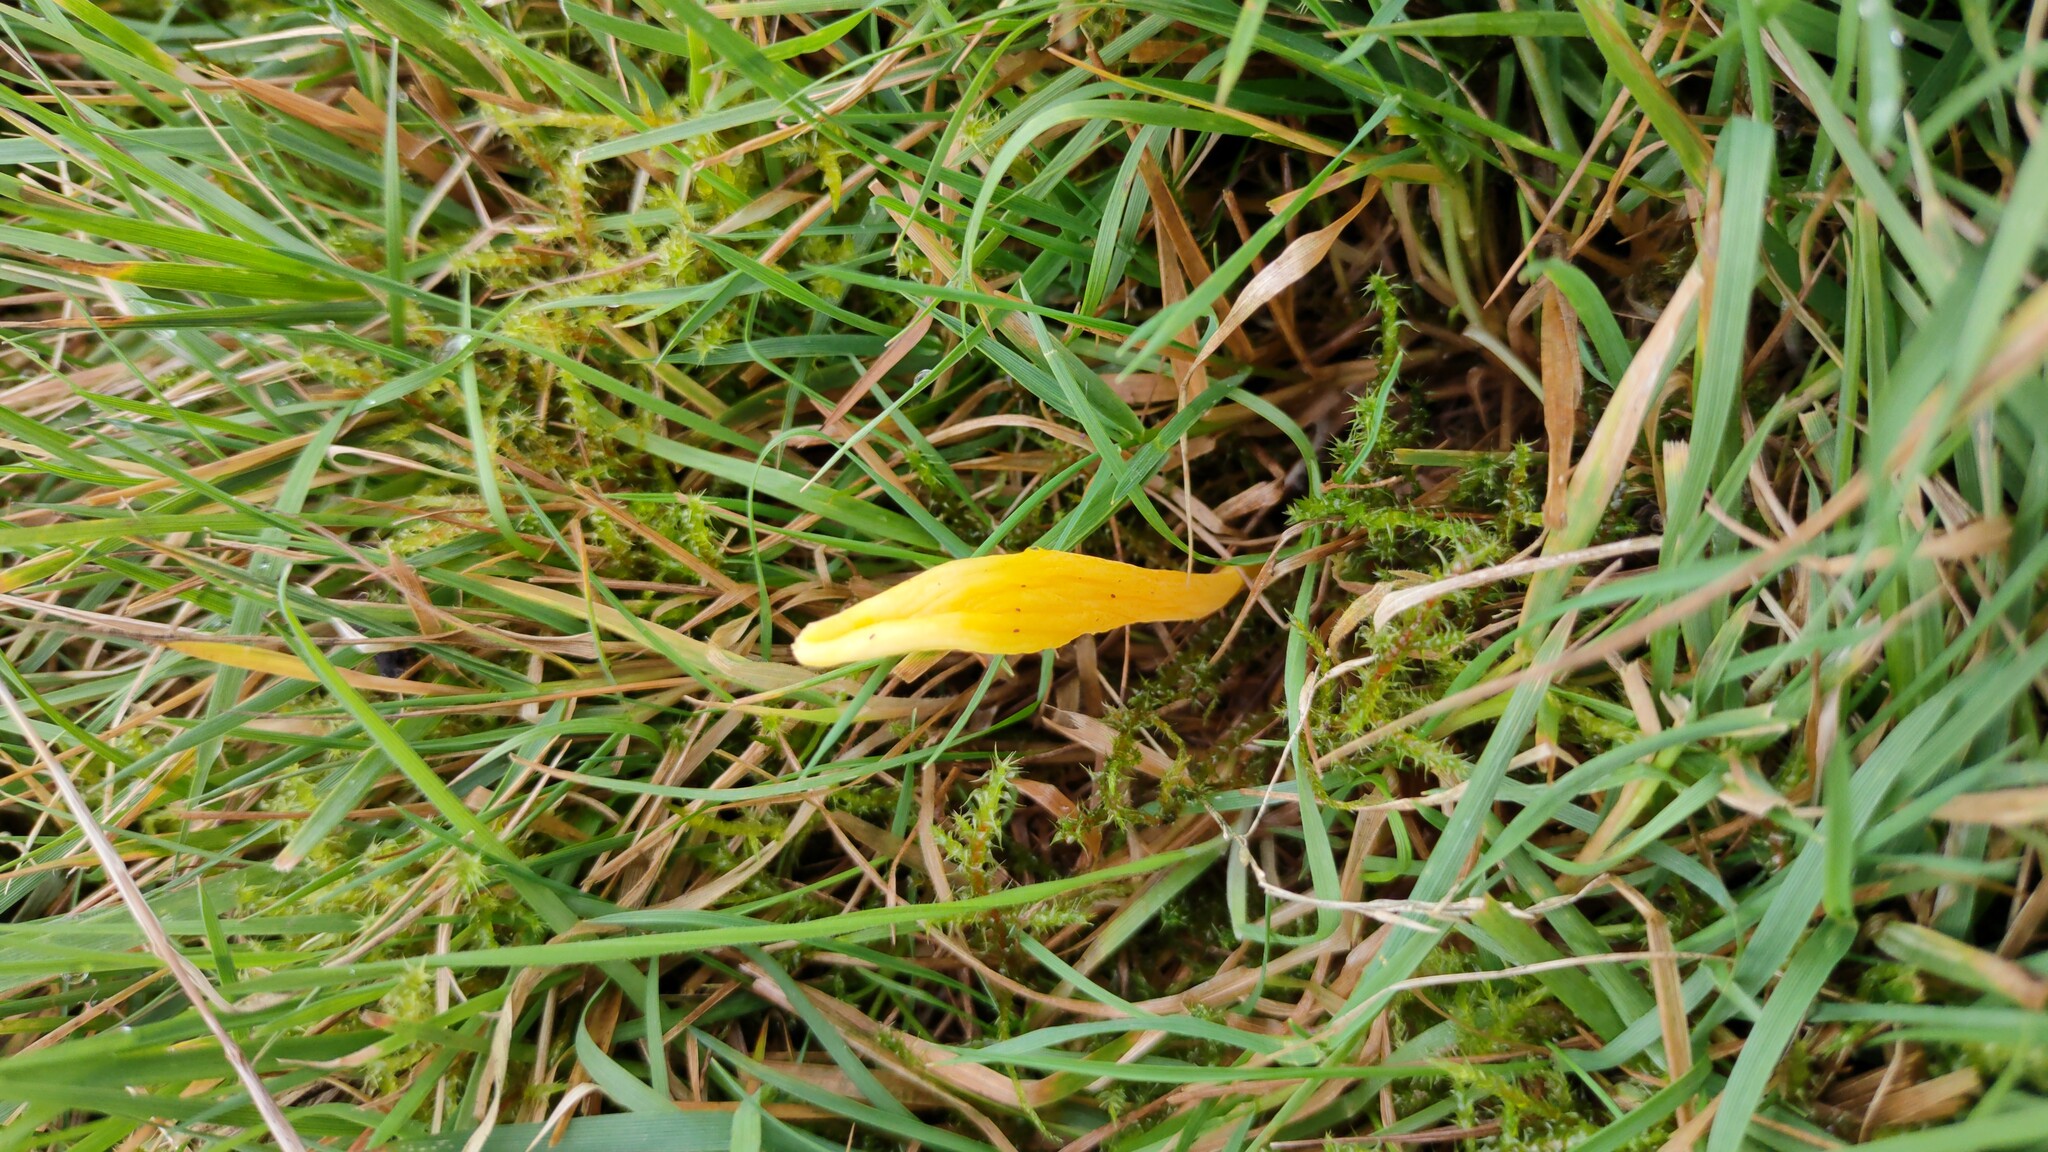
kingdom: Fungi
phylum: Basidiomycota
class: Agaricomycetes
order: Agaricales
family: Clavariaceae
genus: Clavulinopsis
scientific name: Clavulinopsis helvola
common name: Yellow club
